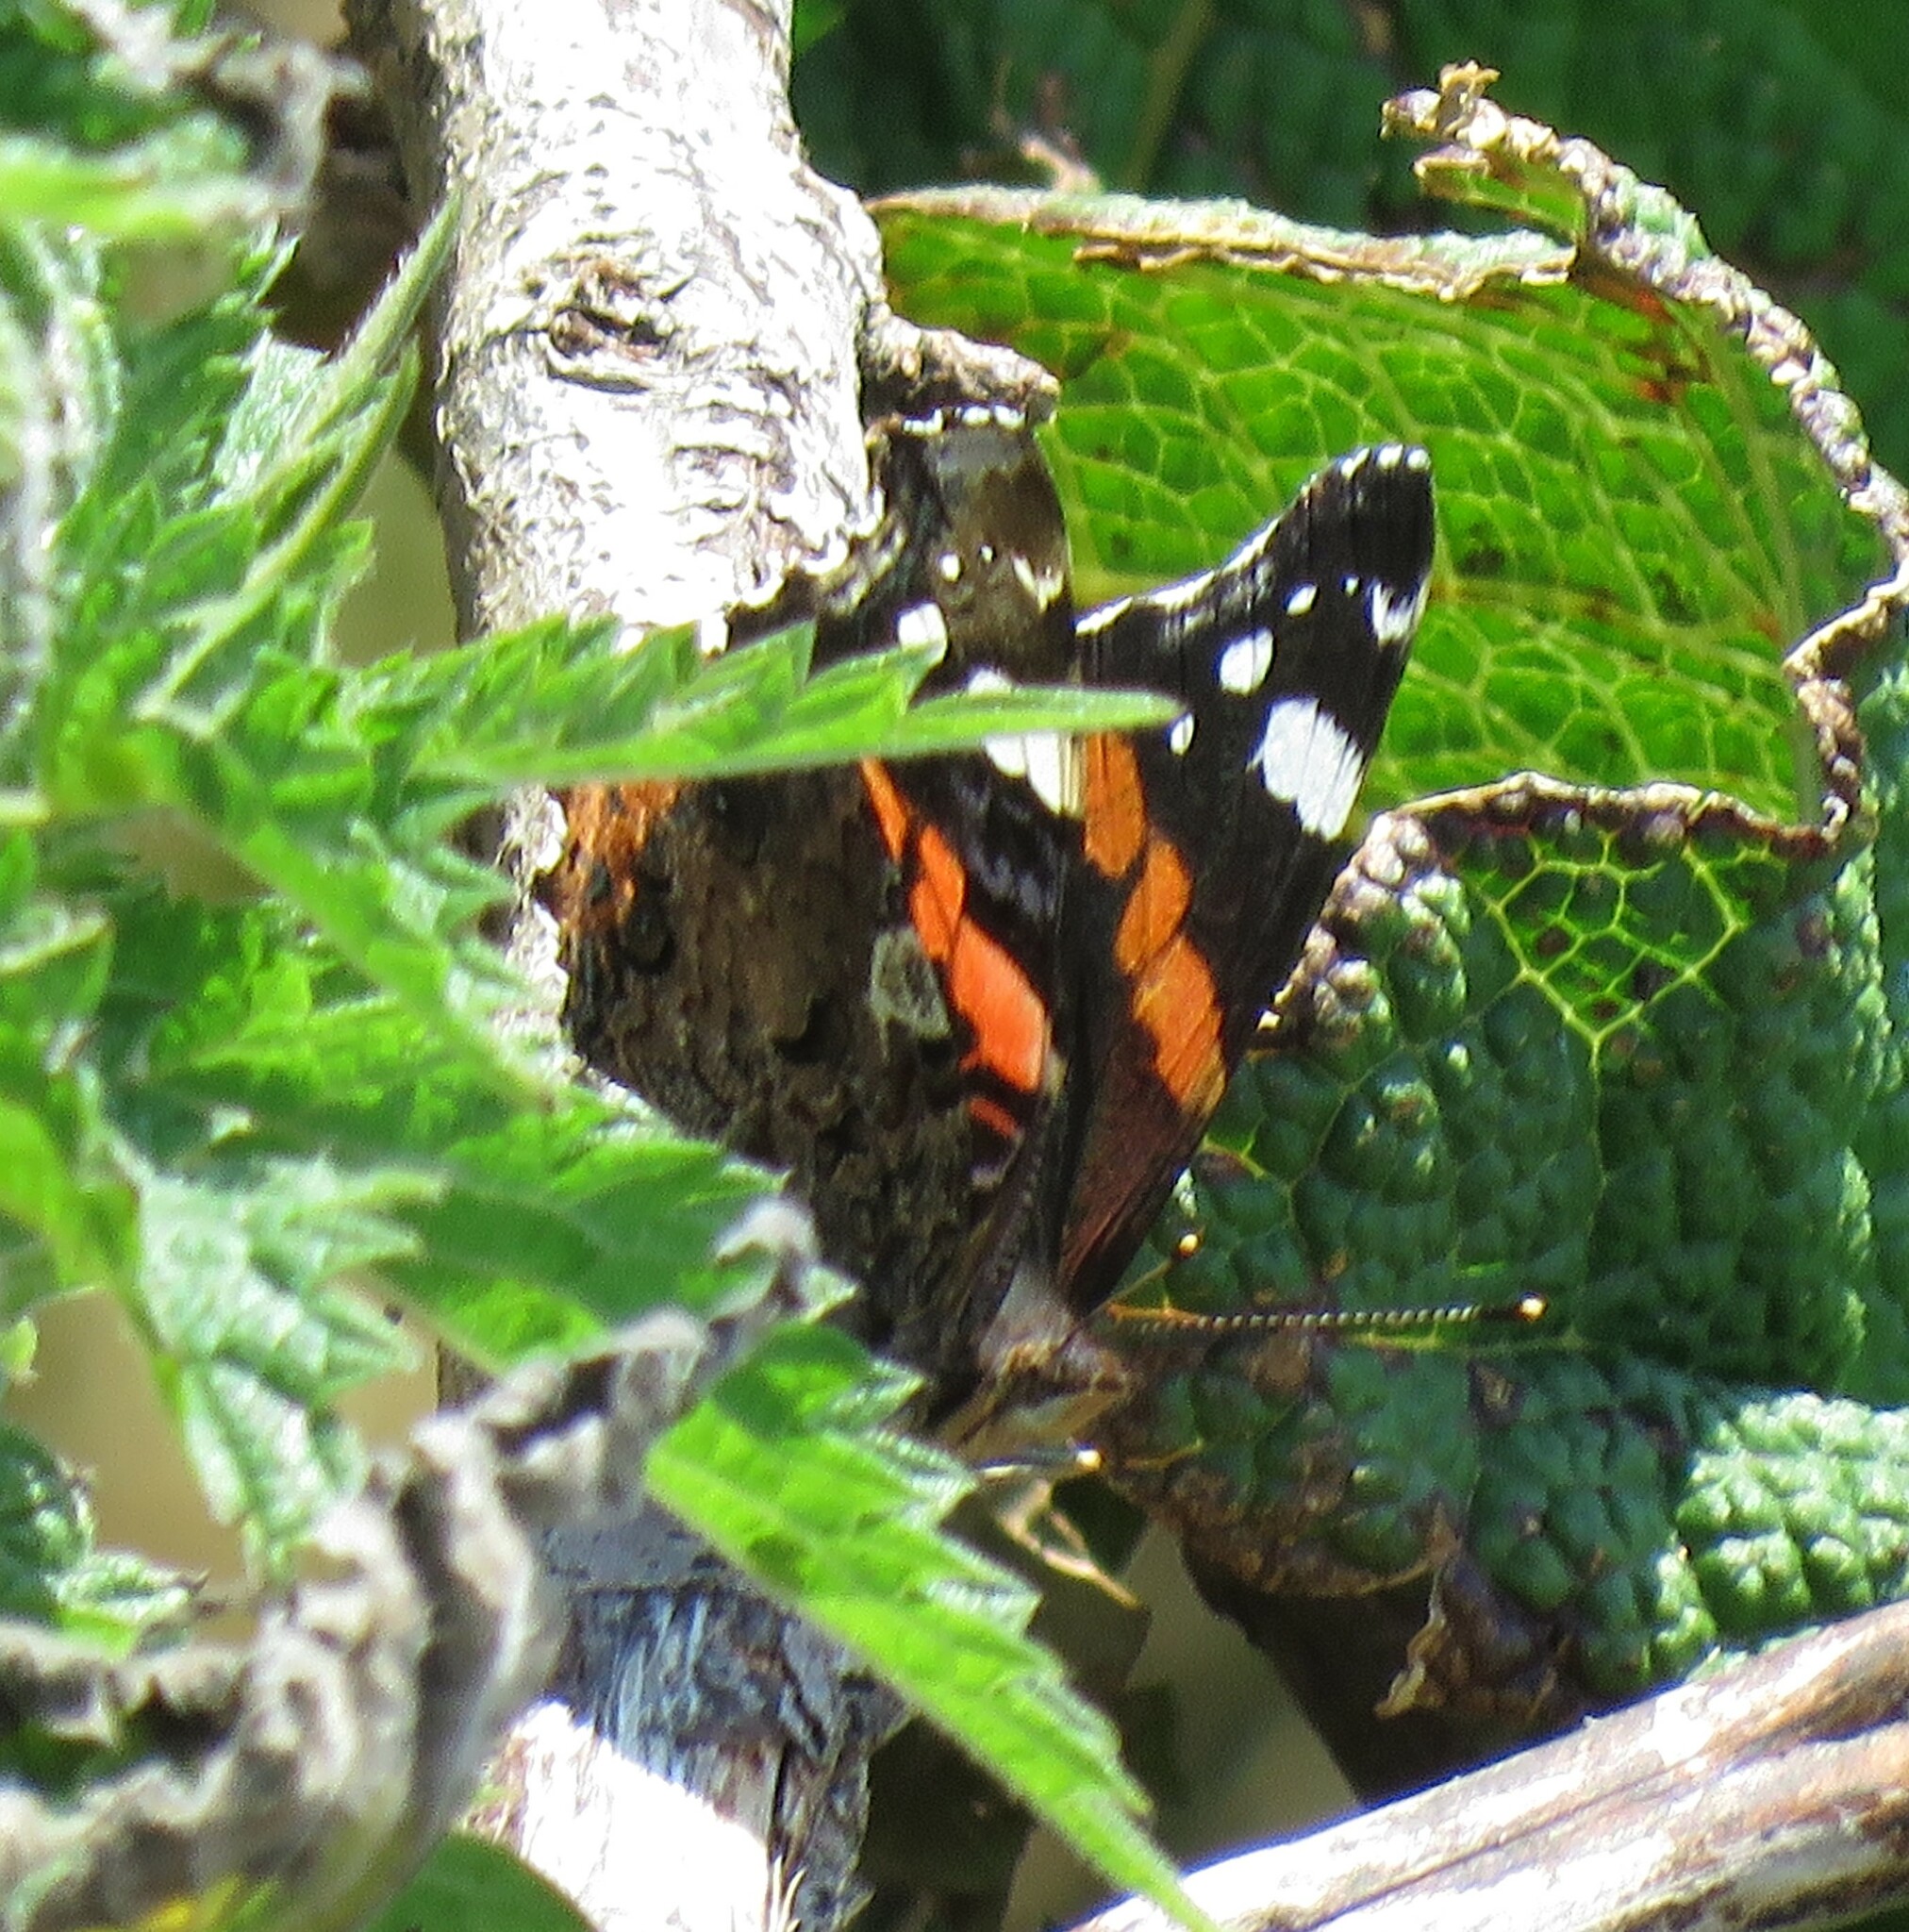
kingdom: Animalia
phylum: Arthropoda
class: Insecta
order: Lepidoptera
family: Nymphalidae
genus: Vanessa
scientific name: Vanessa atalanta
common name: Red admiral
